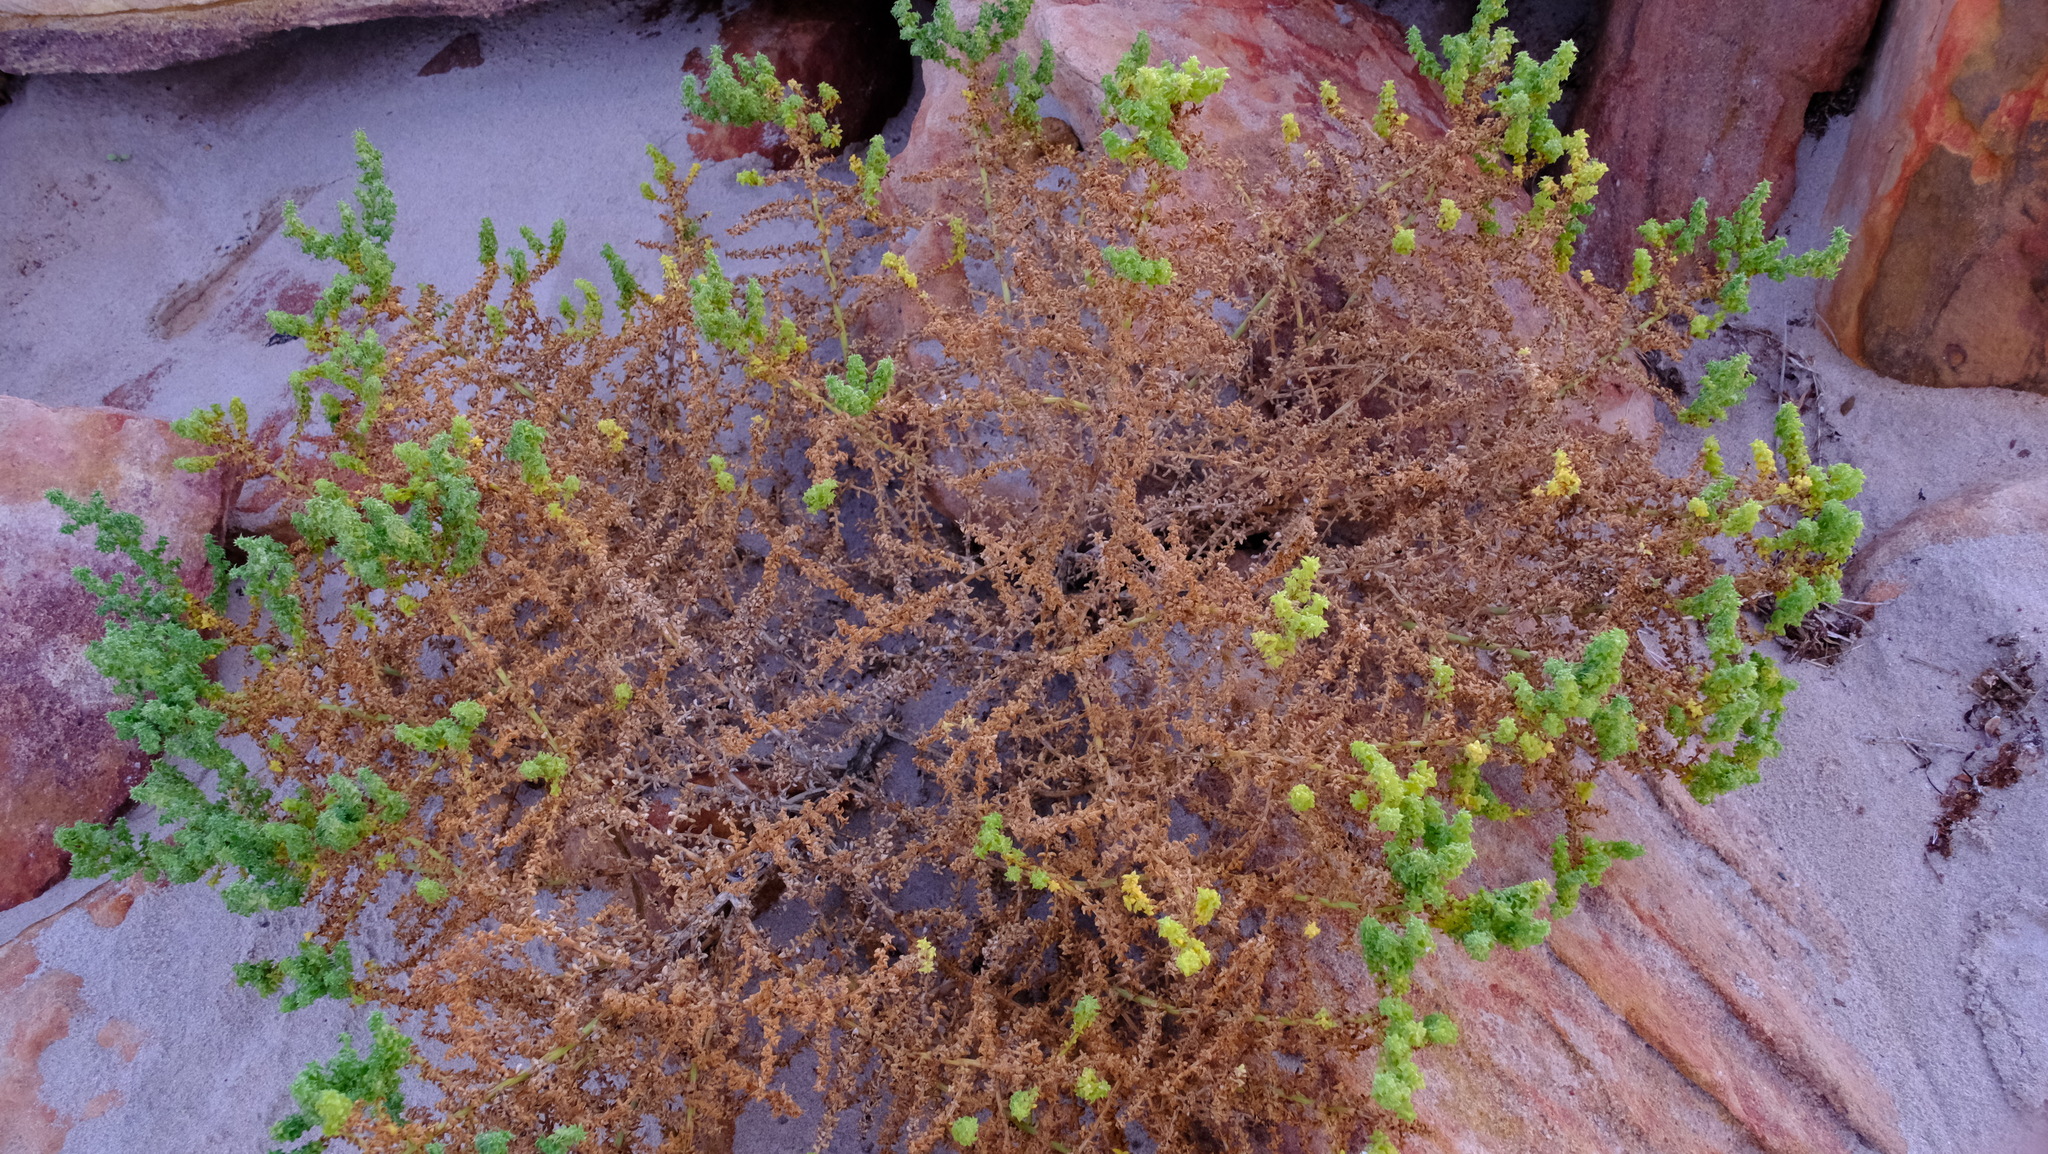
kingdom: Plantae
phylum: Tracheophyta
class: Magnoliopsida
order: Caryophyllales
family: Amaranthaceae
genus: Salsola
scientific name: Salsola australis
